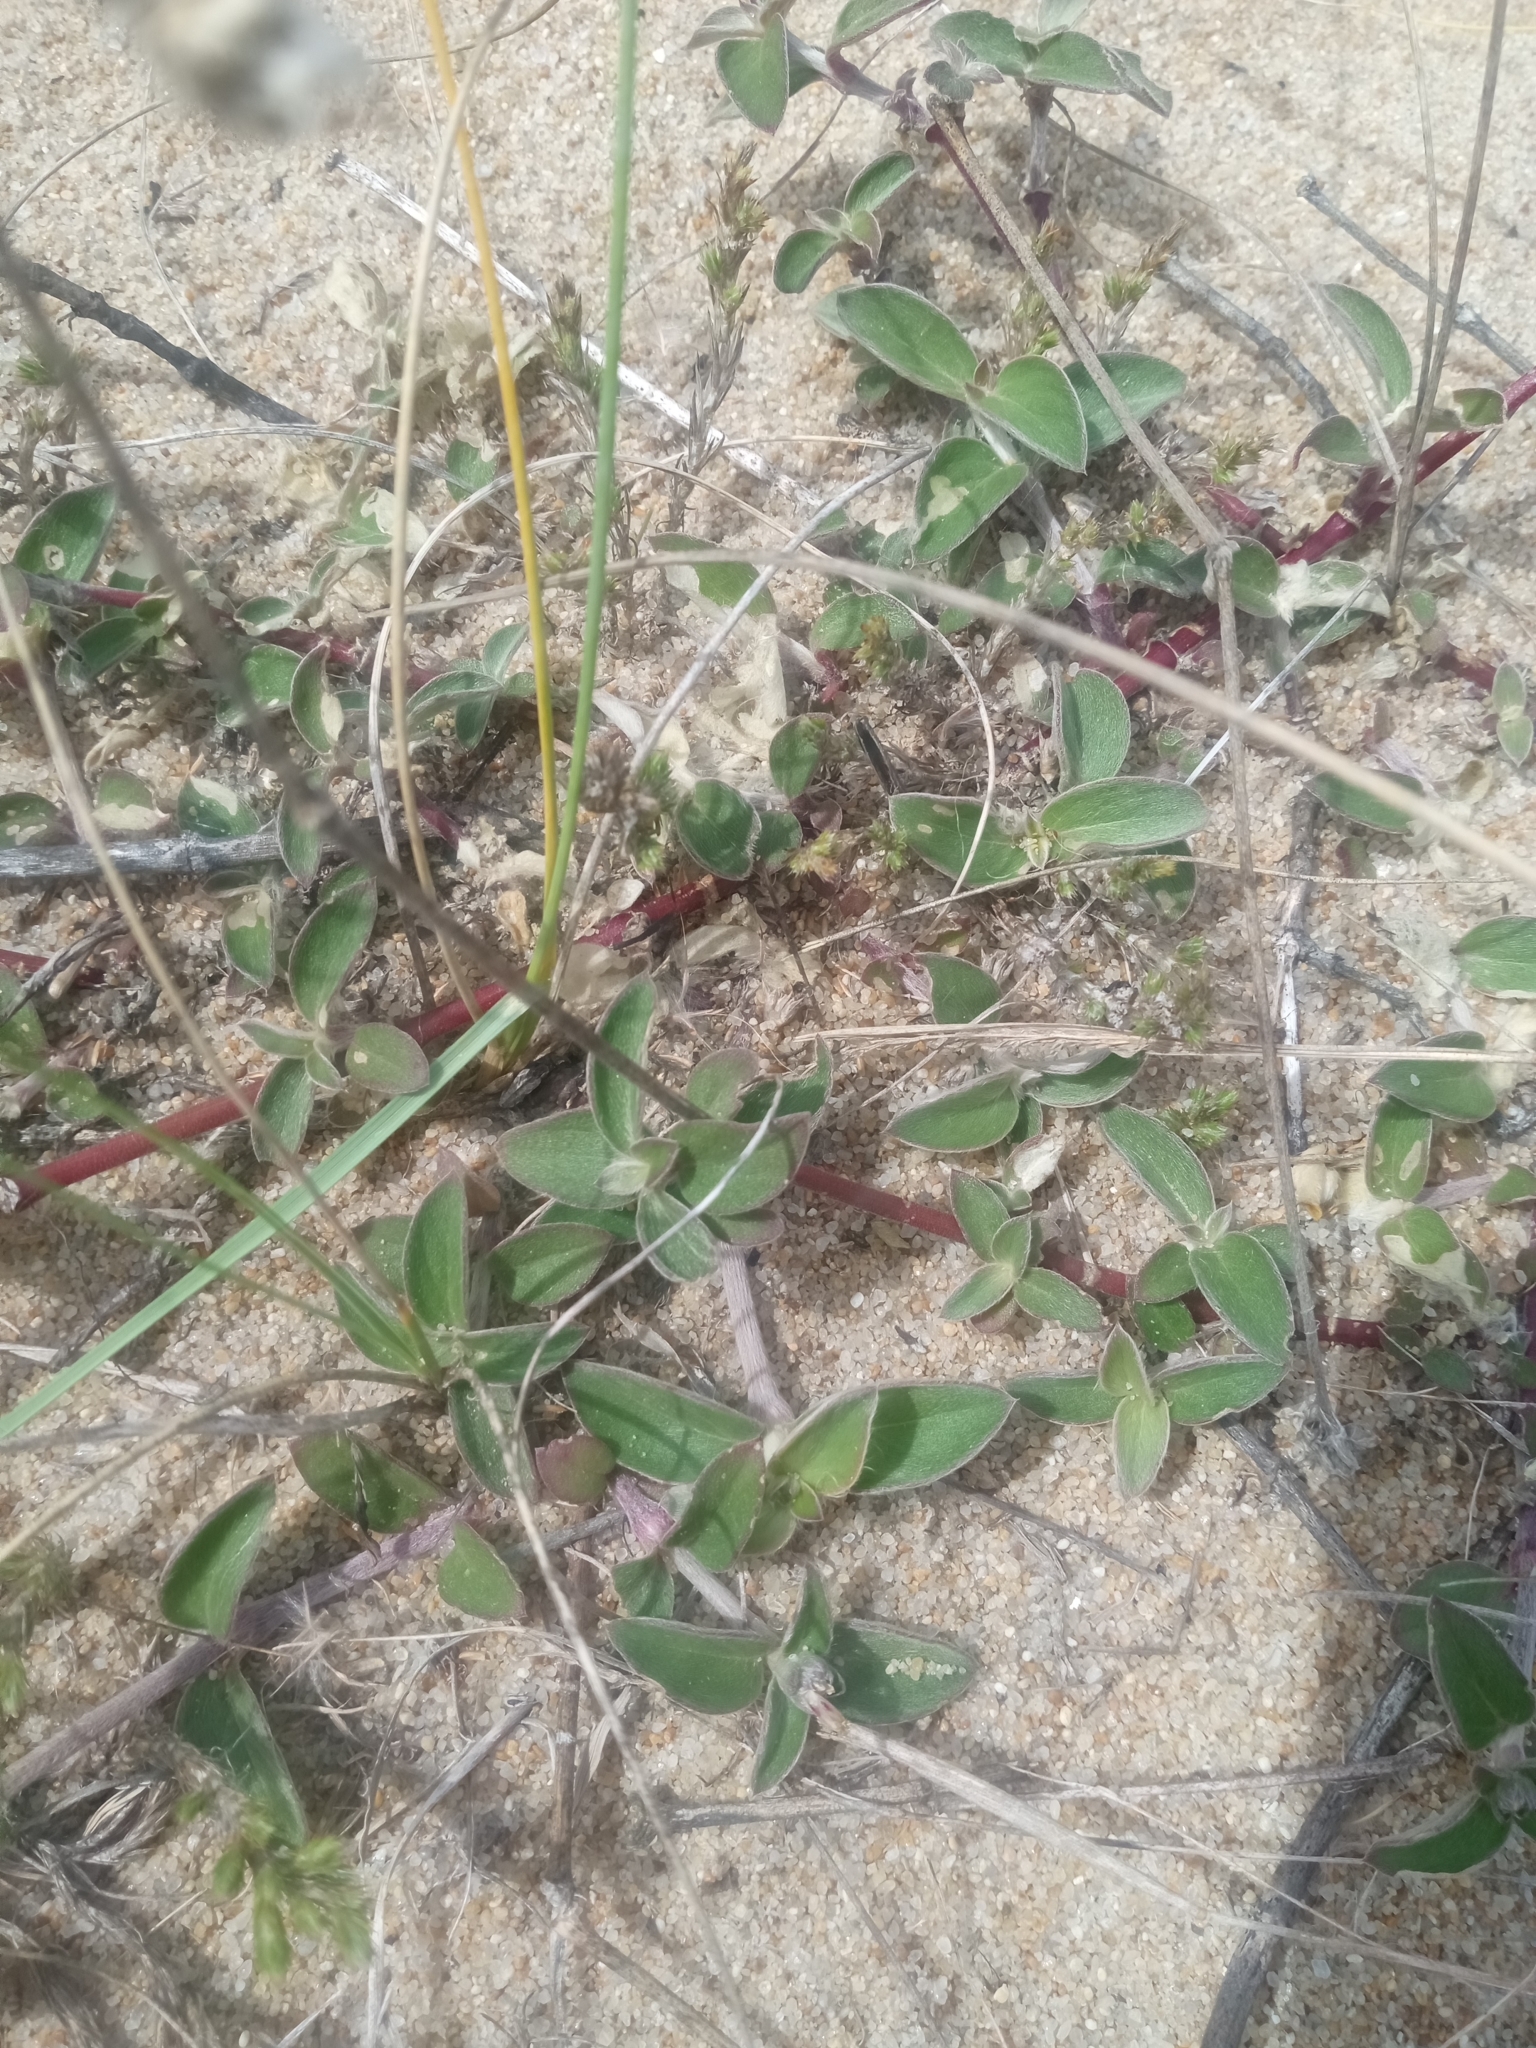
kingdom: Plantae
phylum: Tracheophyta
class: Magnoliopsida
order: Caryophyllales
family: Amaranthaceae
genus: Gomphrena
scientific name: Gomphrena perennis
